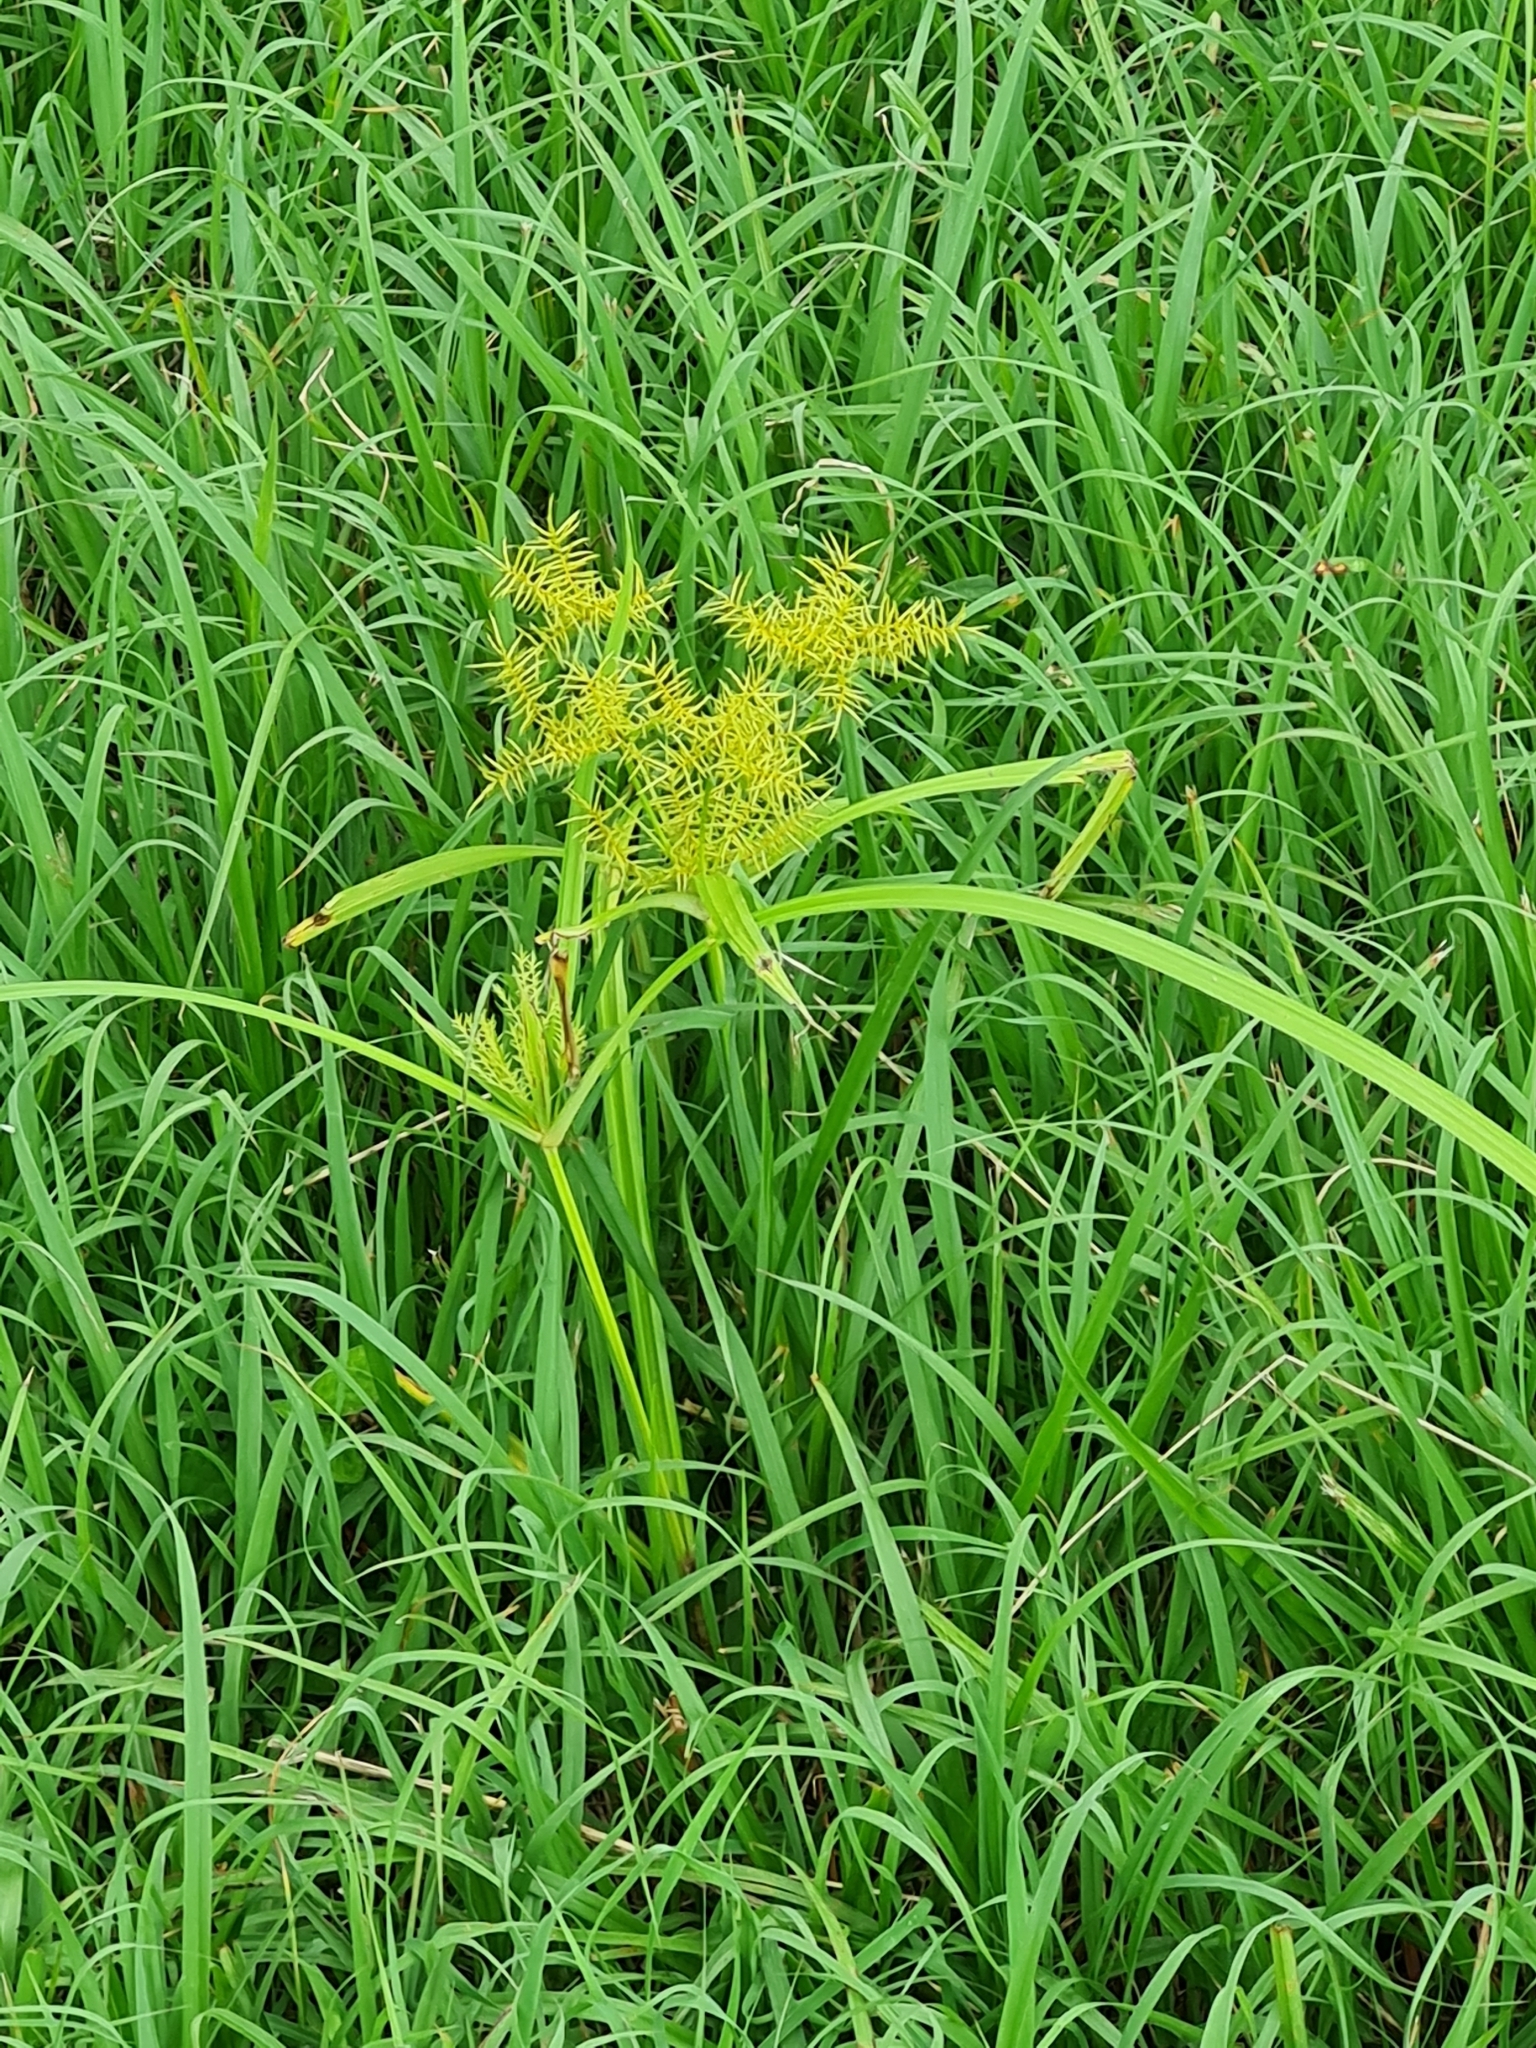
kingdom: Plantae
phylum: Tracheophyta
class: Liliopsida
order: Poales
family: Cyperaceae
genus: Cyperus
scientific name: Cyperus odoratus
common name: Fragrant flatsedge
